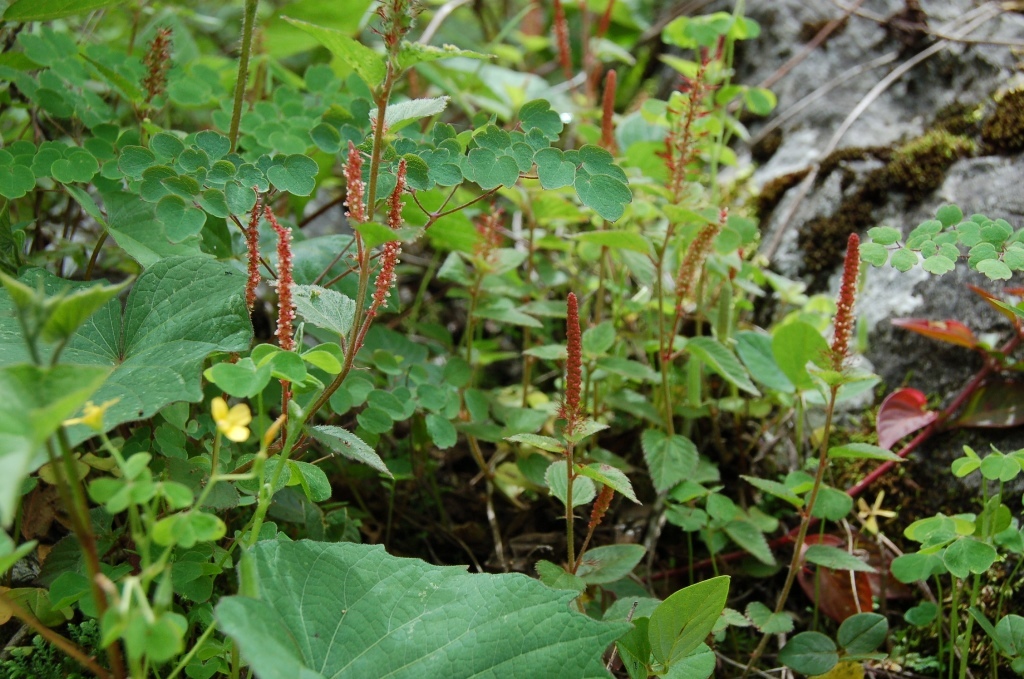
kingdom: Plantae
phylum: Tracheophyta
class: Magnoliopsida
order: Malpighiales
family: Euphorbiaceae
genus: Acalypha
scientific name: Acalypha phleoides
